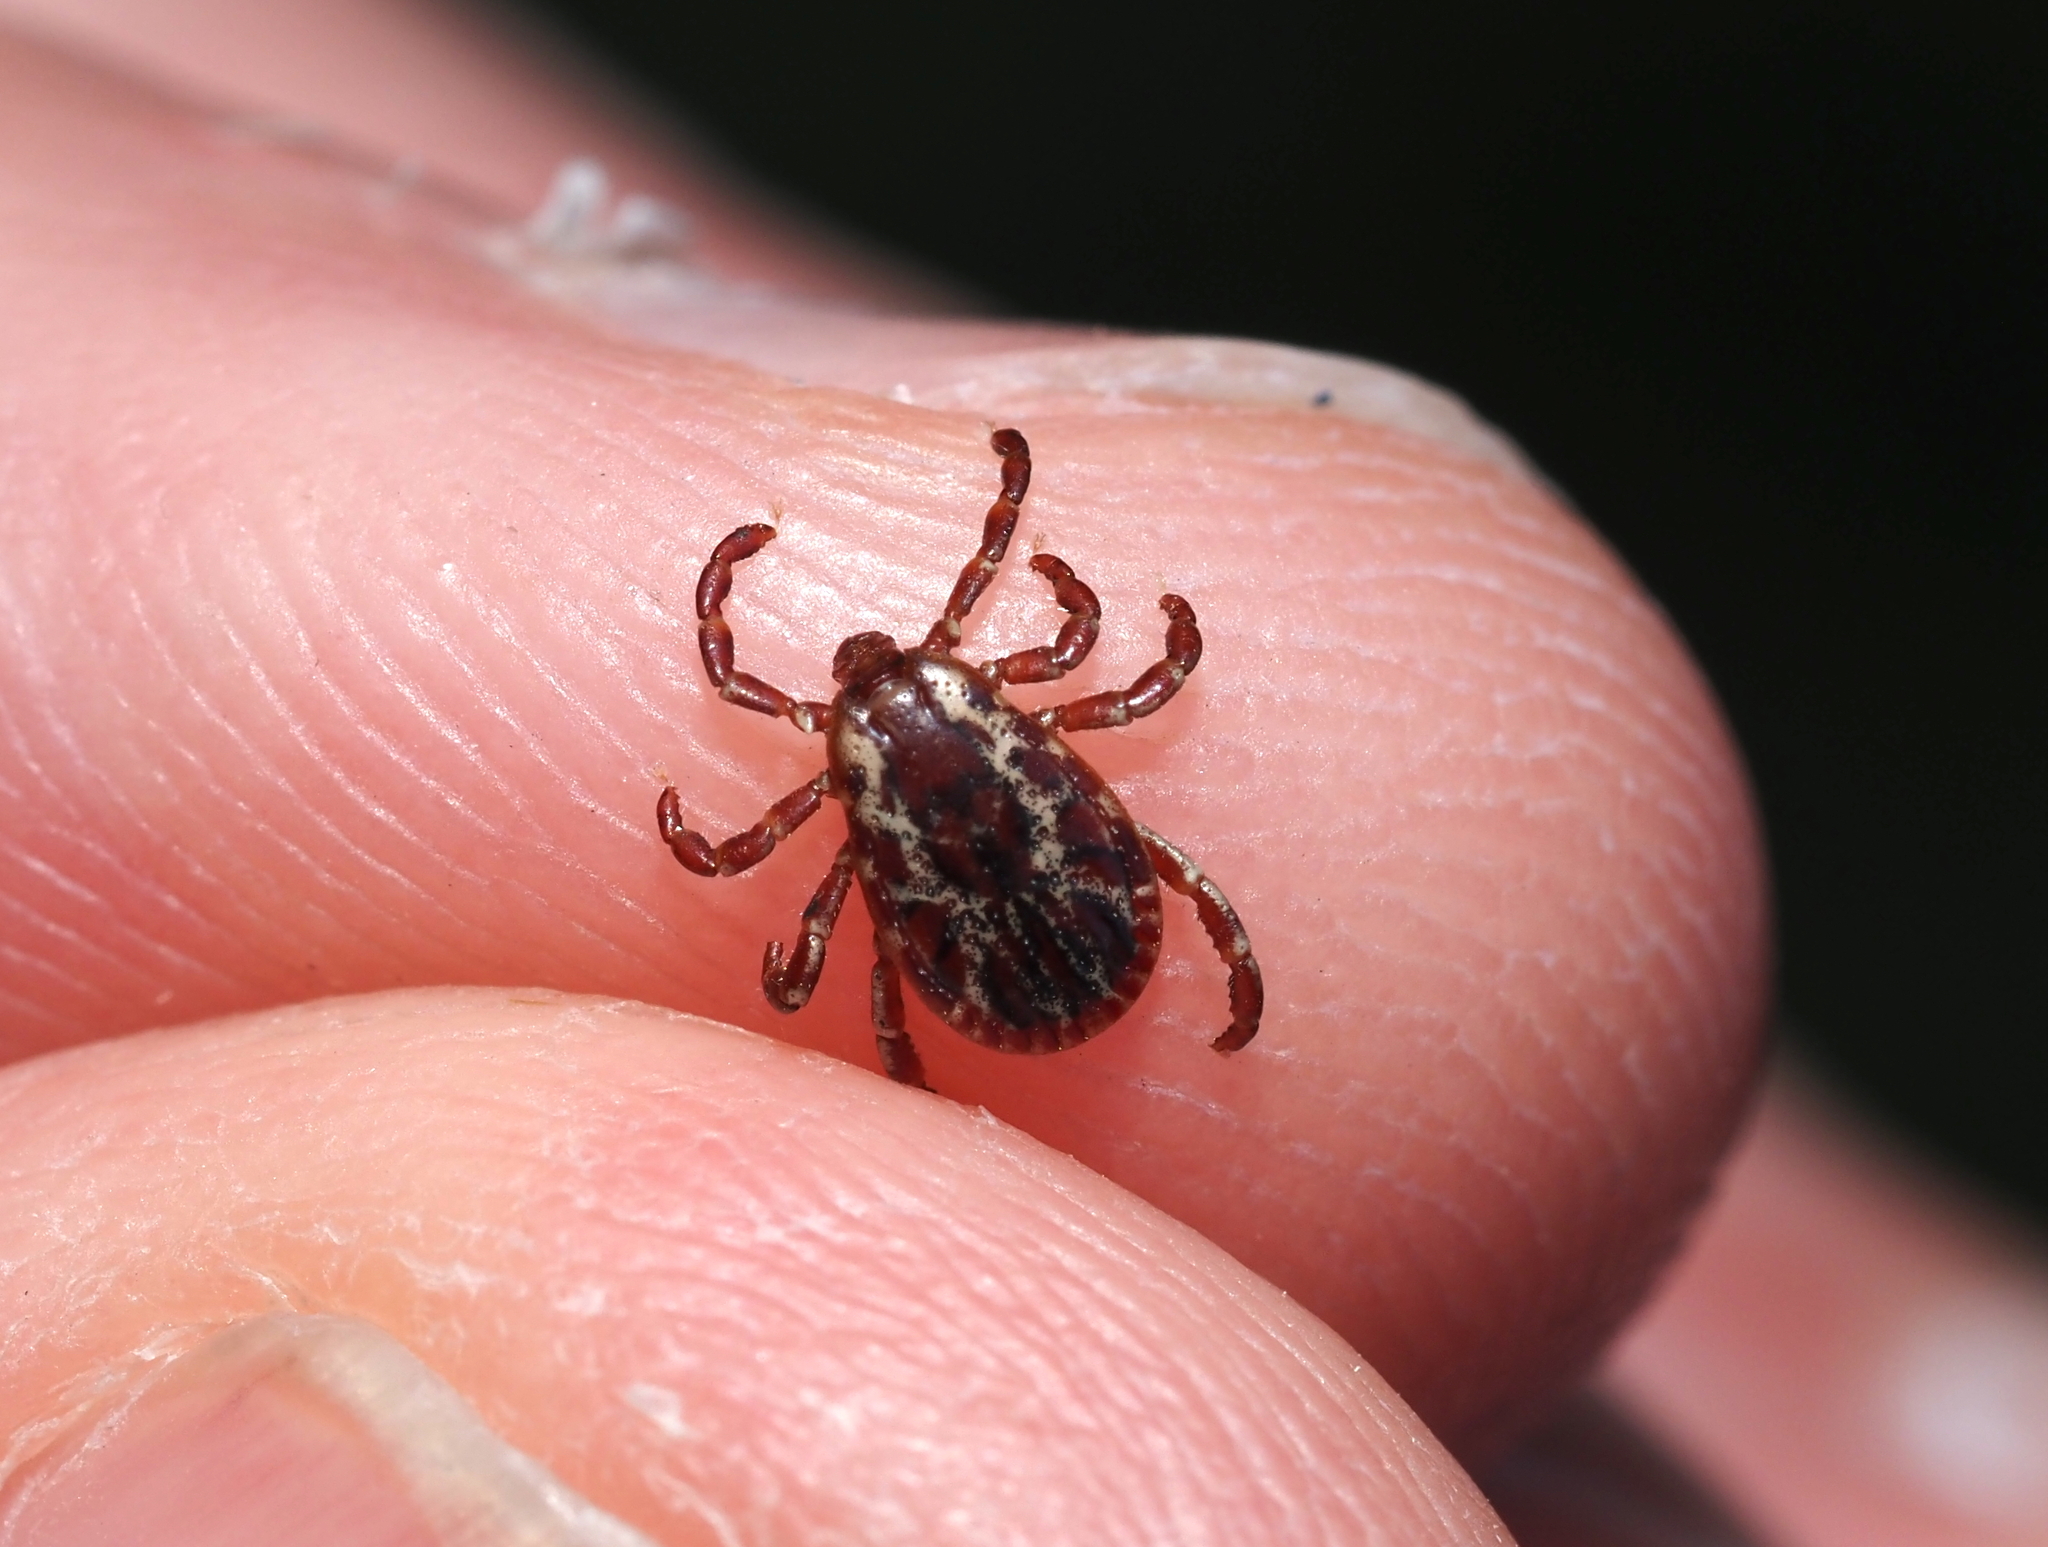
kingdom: Animalia
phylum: Arthropoda
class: Arachnida
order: Ixodida
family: Ixodidae
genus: Dermacentor
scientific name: Dermacentor variabilis
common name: American dog tick
